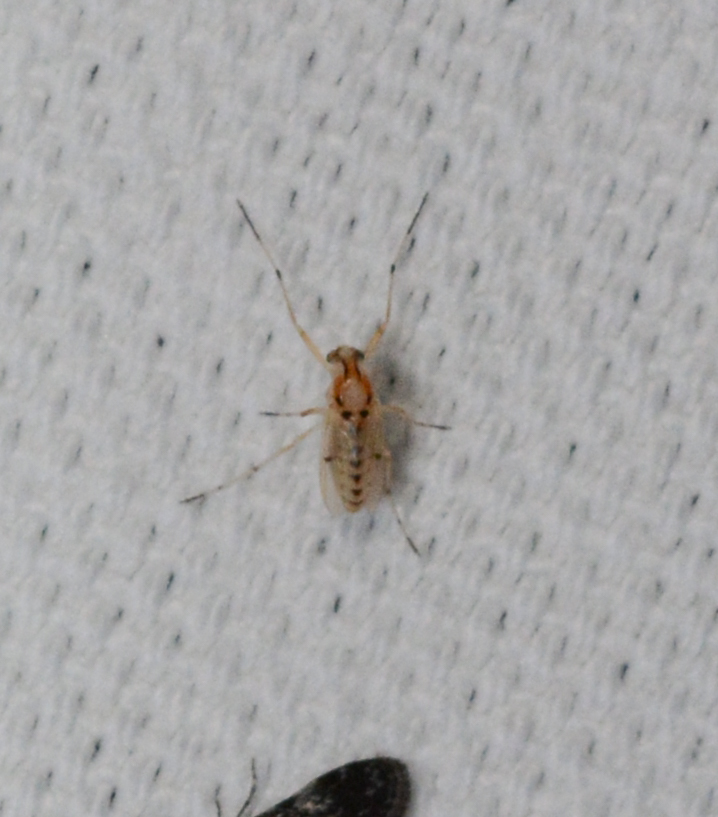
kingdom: Animalia
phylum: Arthropoda
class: Insecta
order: Diptera
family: Chironomidae
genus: Coelotanypus
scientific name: Coelotanypus concinnus
